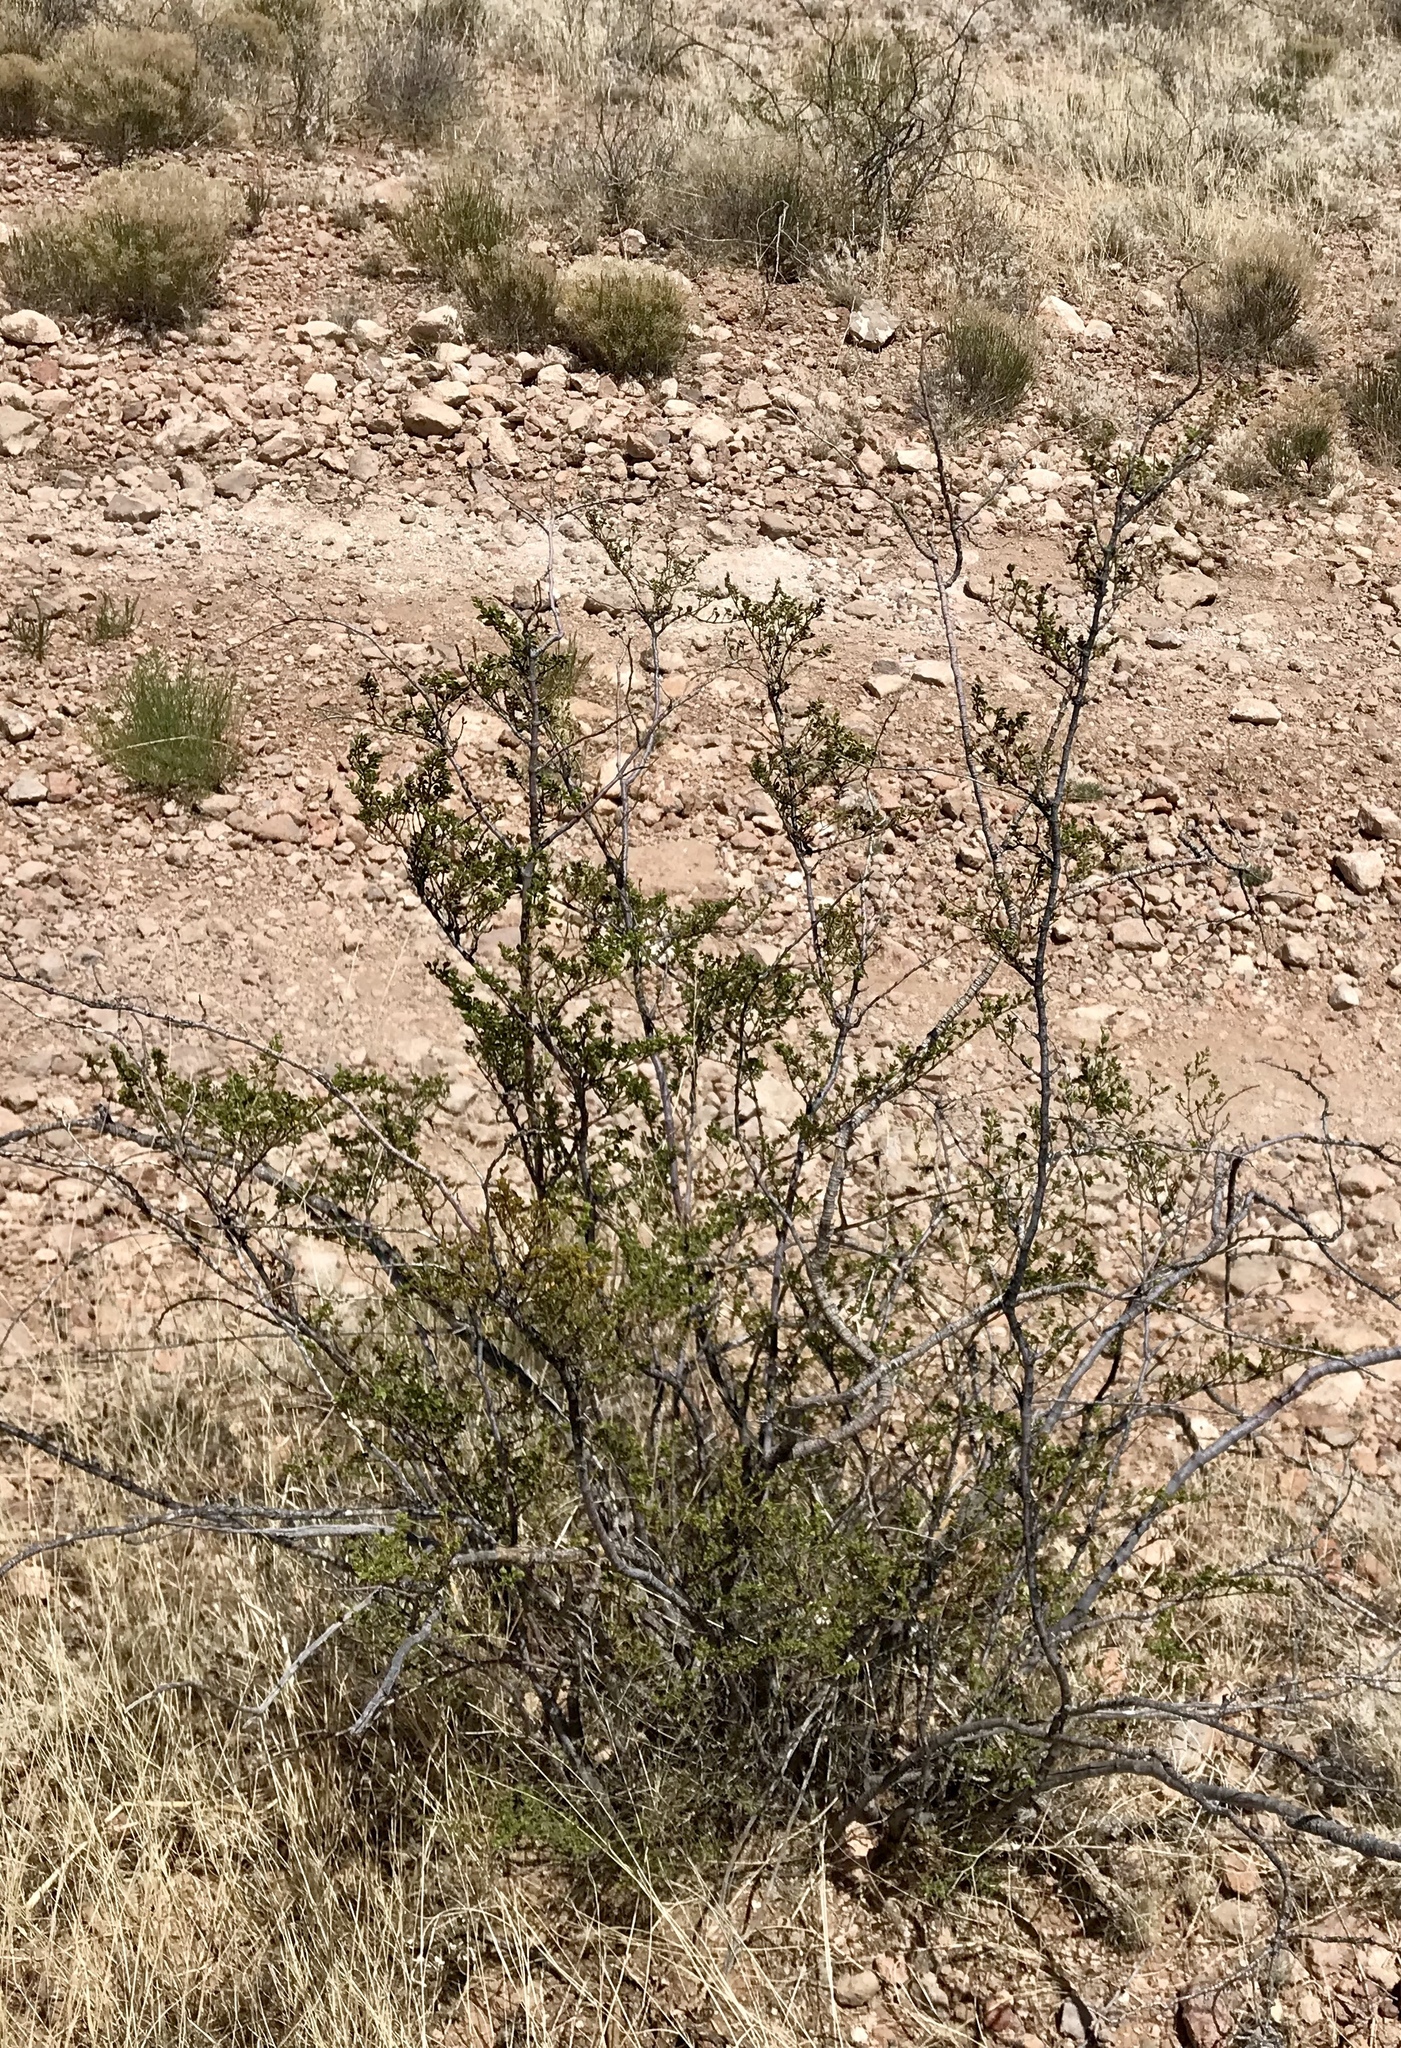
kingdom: Plantae
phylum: Tracheophyta
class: Magnoliopsida
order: Zygophyllales
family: Zygophyllaceae
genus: Larrea
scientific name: Larrea tridentata
